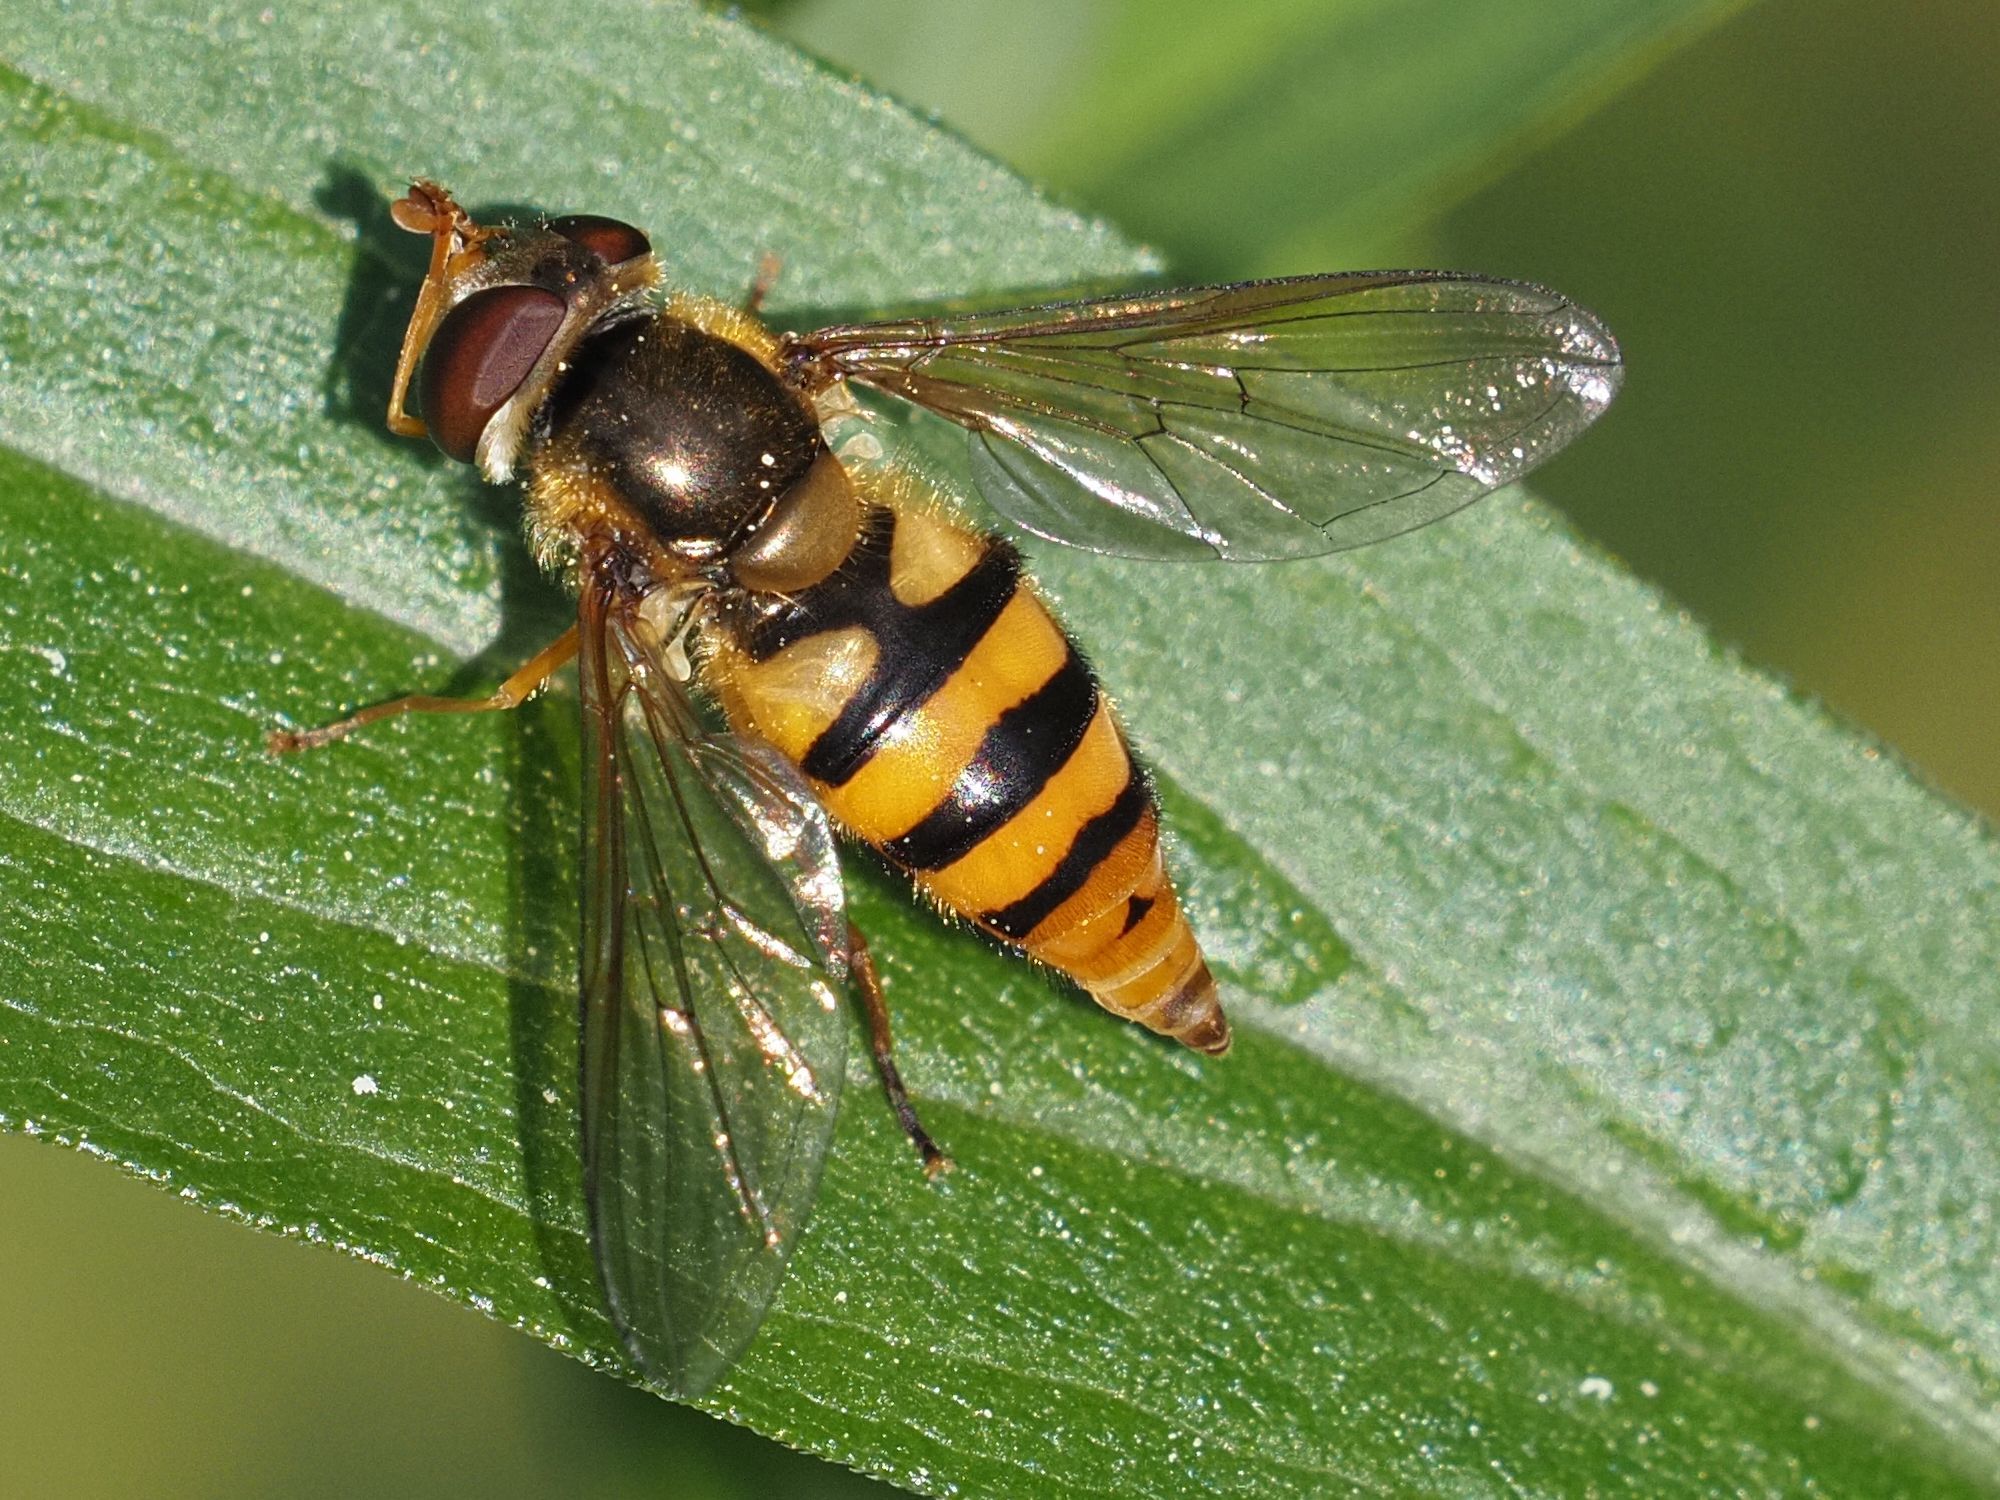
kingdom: Animalia
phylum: Arthropoda
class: Insecta
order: Diptera
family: Syrphidae
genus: Epistrophe
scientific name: Epistrophe melanostoma
